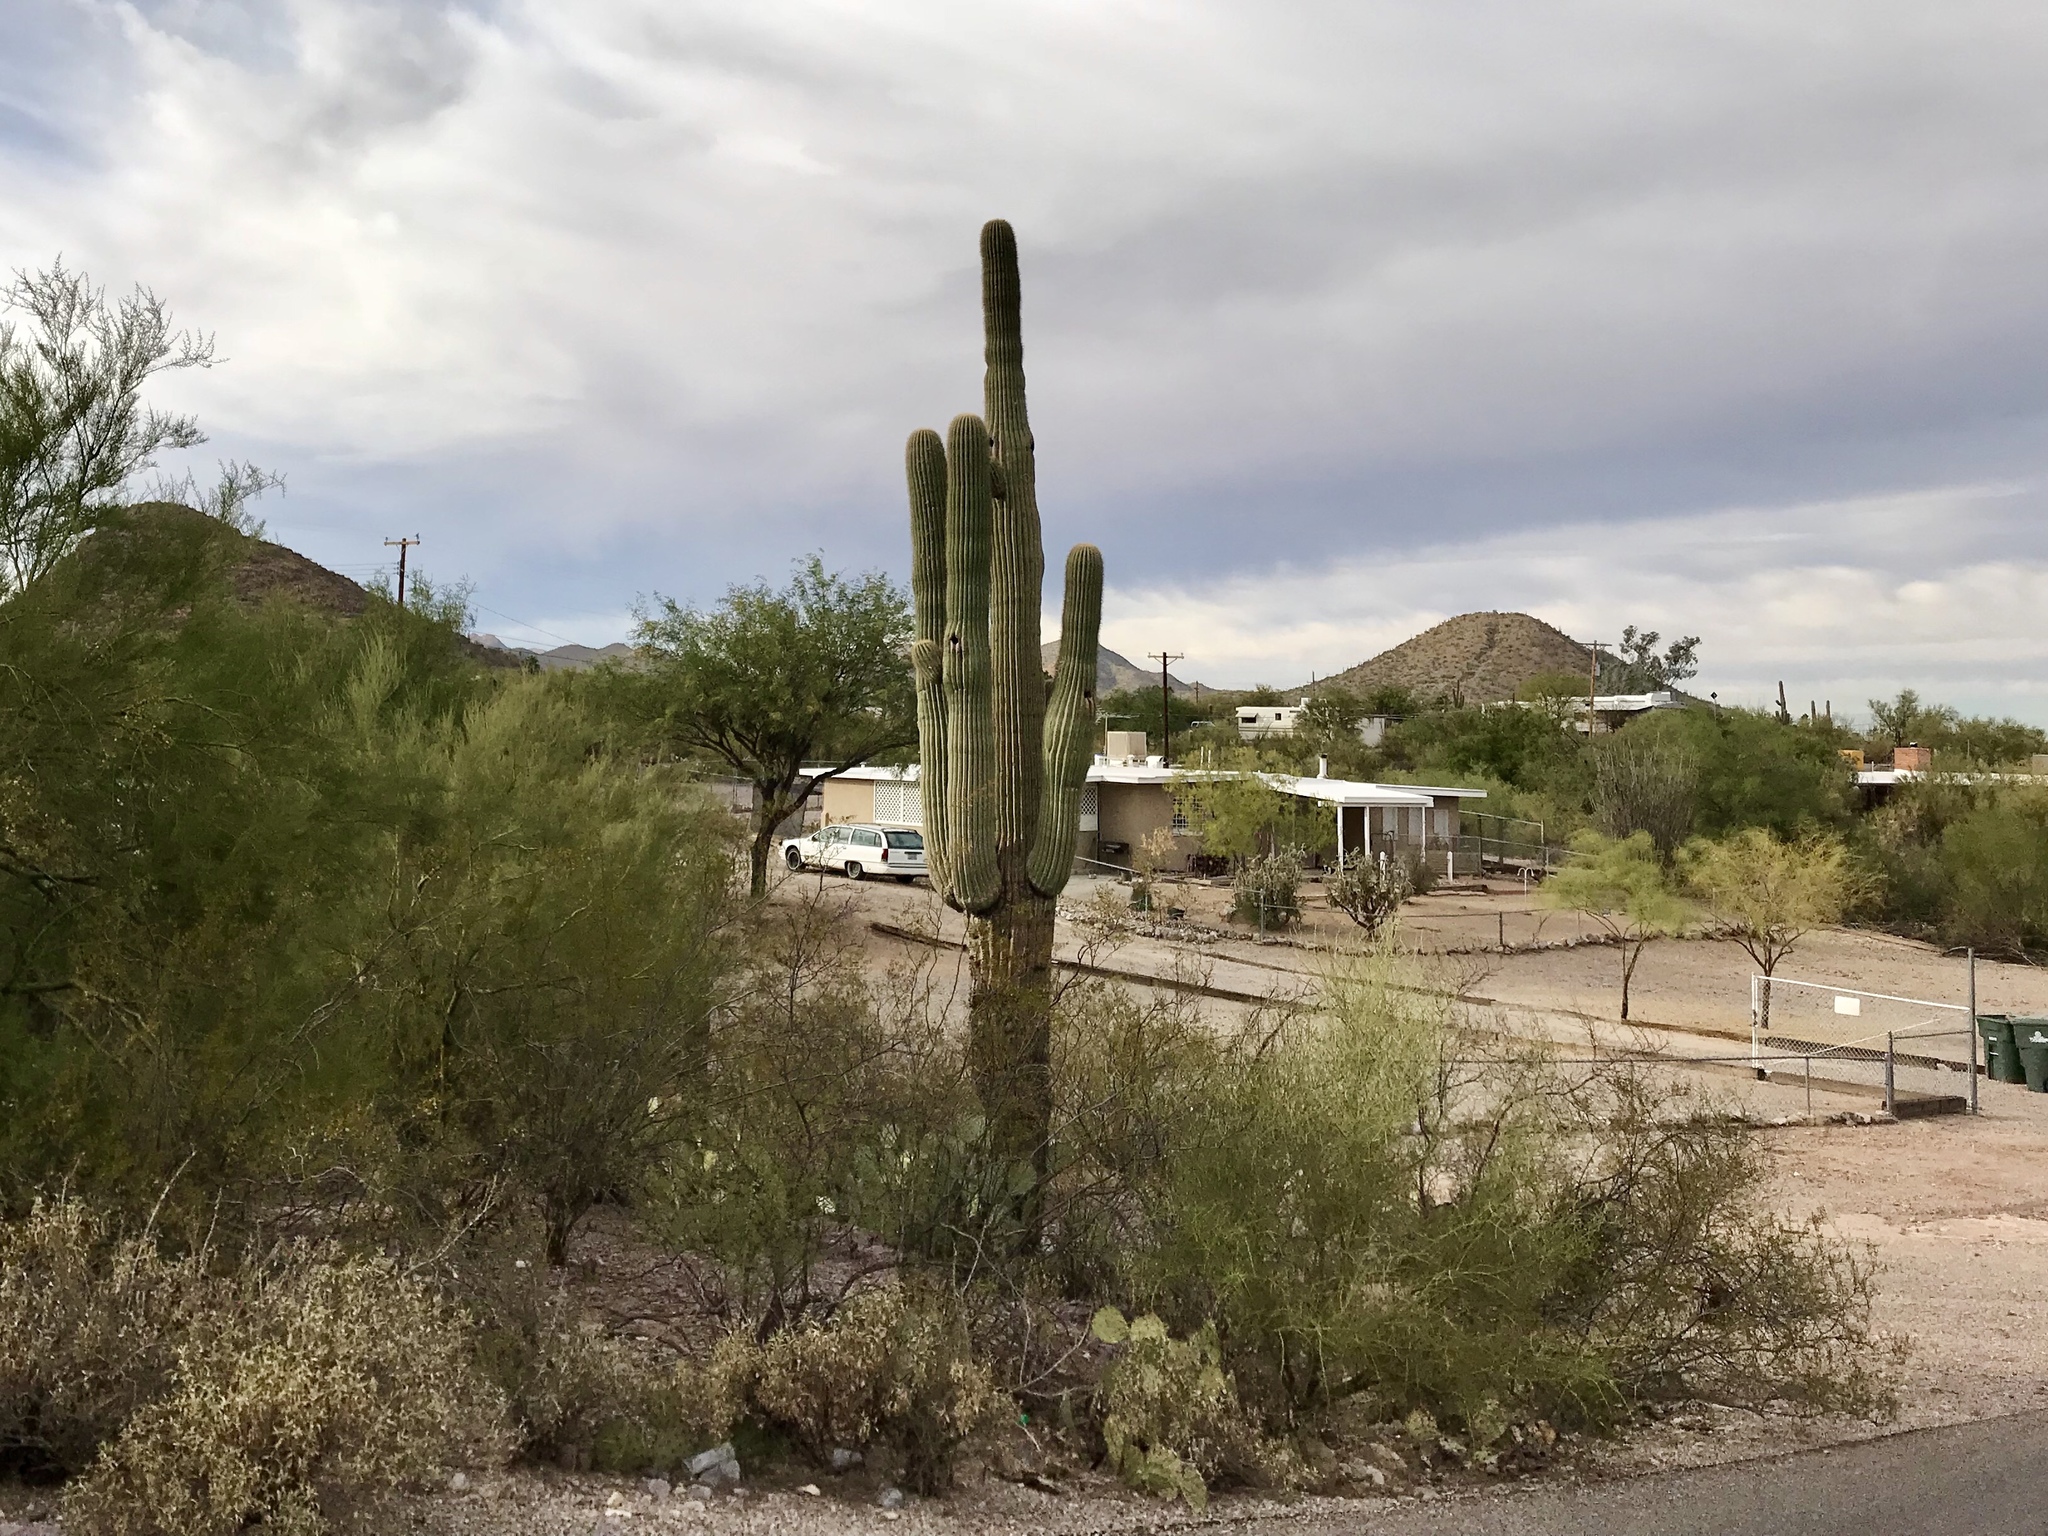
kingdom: Plantae
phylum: Tracheophyta
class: Magnoliopsida
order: Caryophyllales
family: Cactaceae
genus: Carnegiea
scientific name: Carnegiea gigantea
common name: Saguaro
